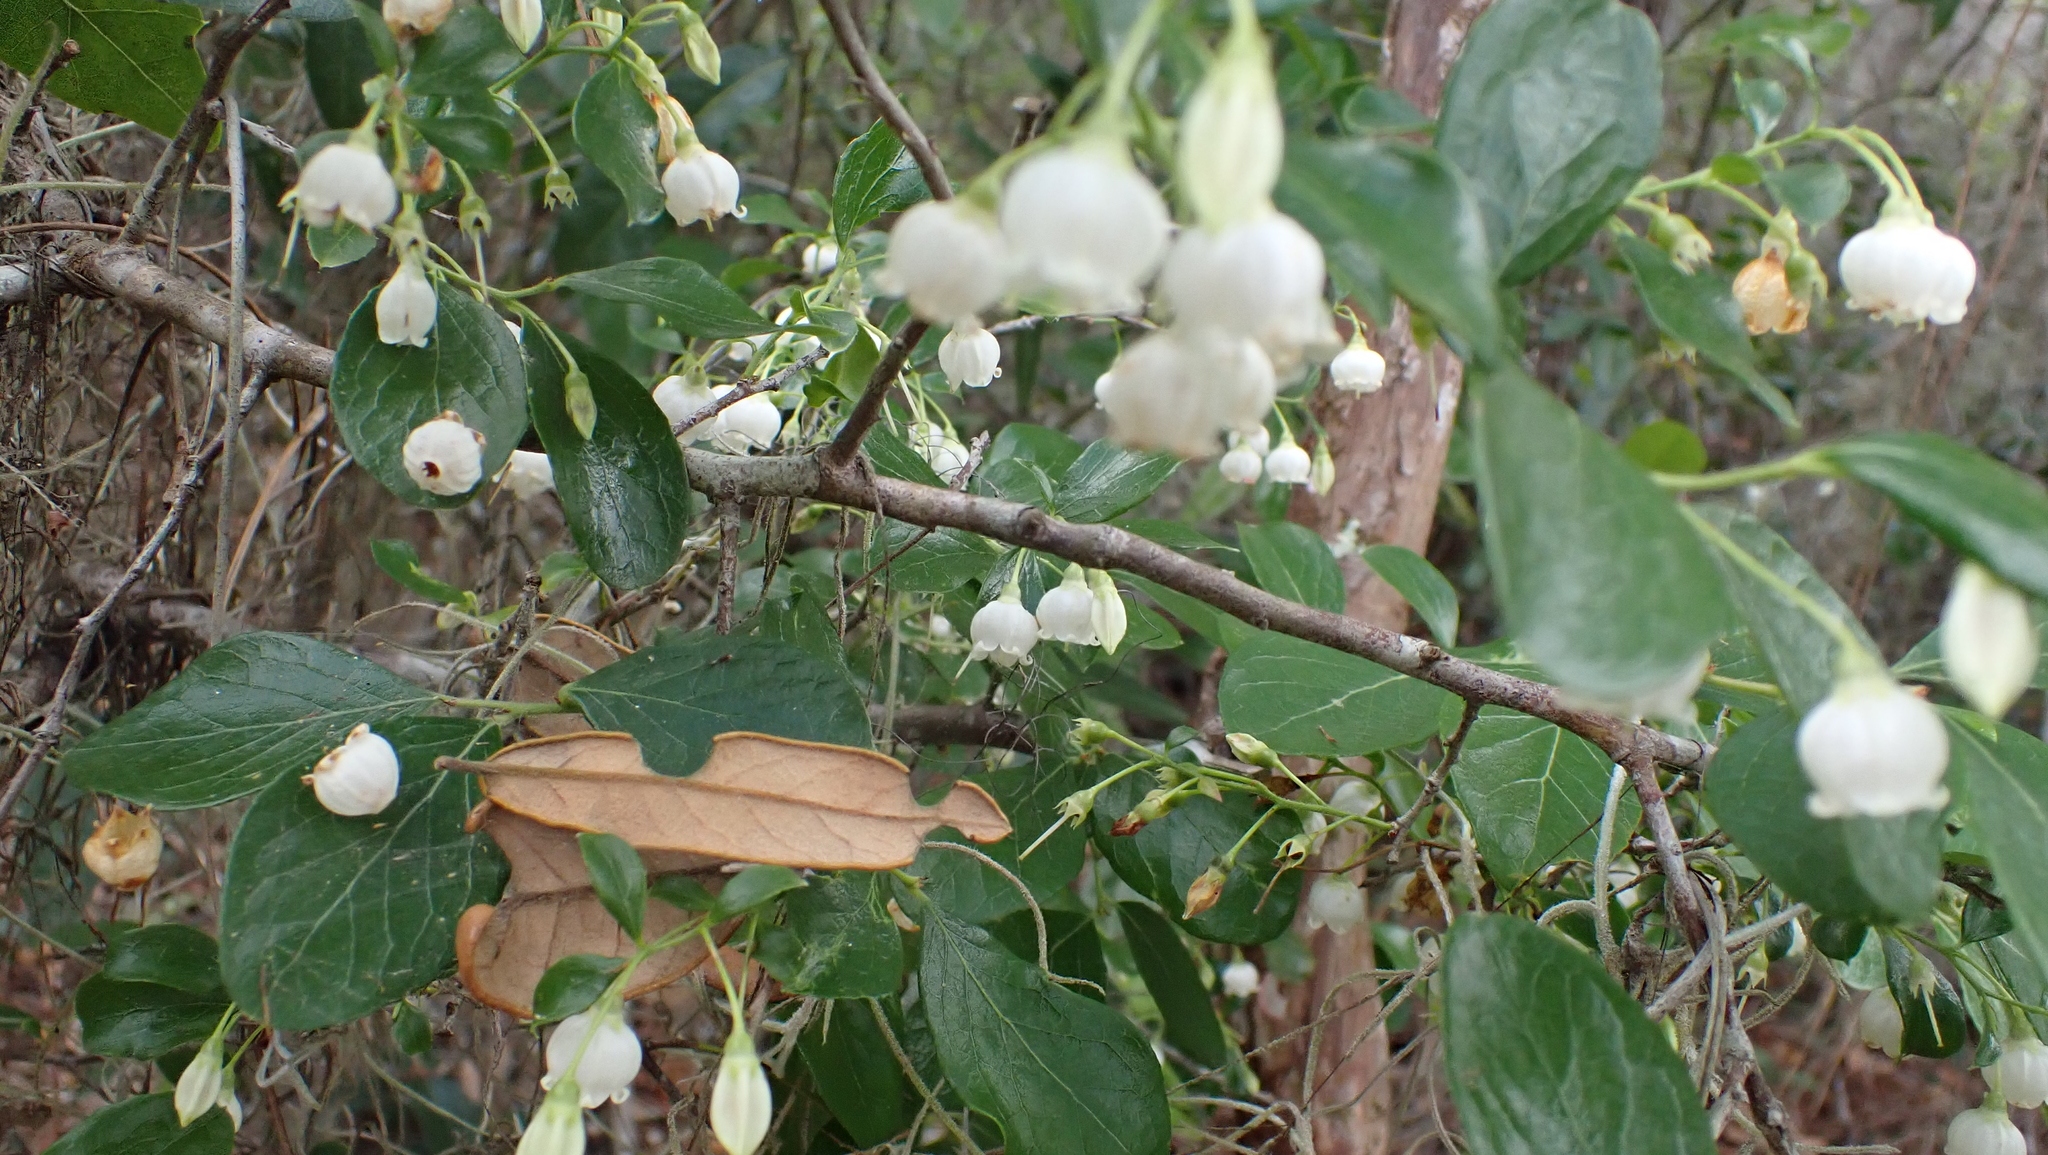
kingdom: Plantae
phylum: Tracheophyta
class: Magnoliopsida
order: Ericales
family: Ericaceae
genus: Vaccinium
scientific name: Vaccinium arboreum
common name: Farkleberry
